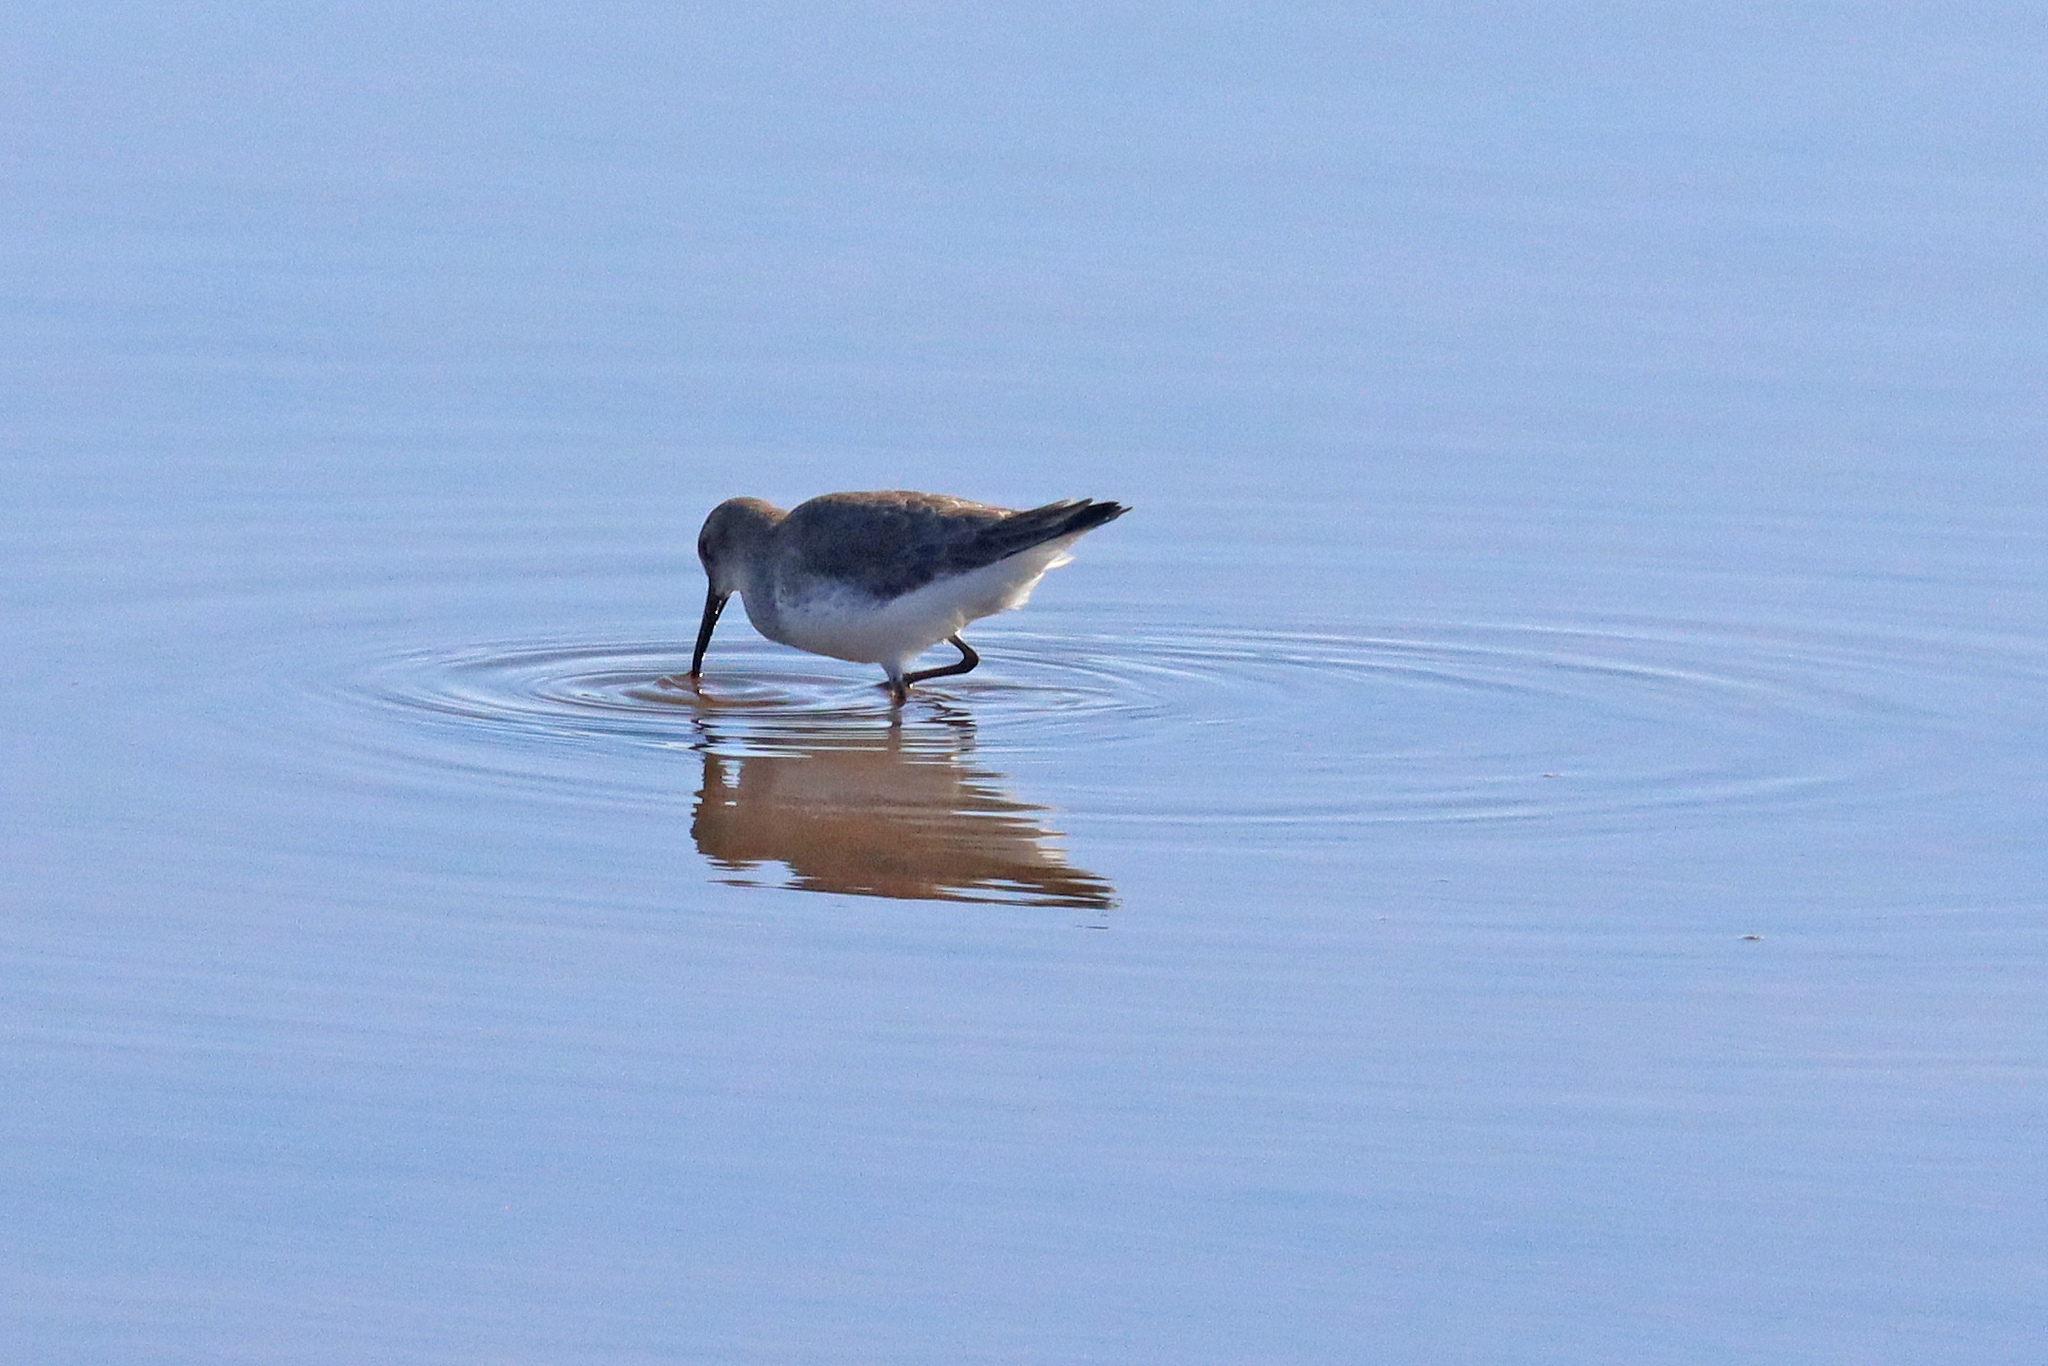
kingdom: Animalia
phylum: Chordata
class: Aves
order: Charadriiformes
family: Scolopacidae
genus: Calidris
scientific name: Calidris alpina
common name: Dunlin
